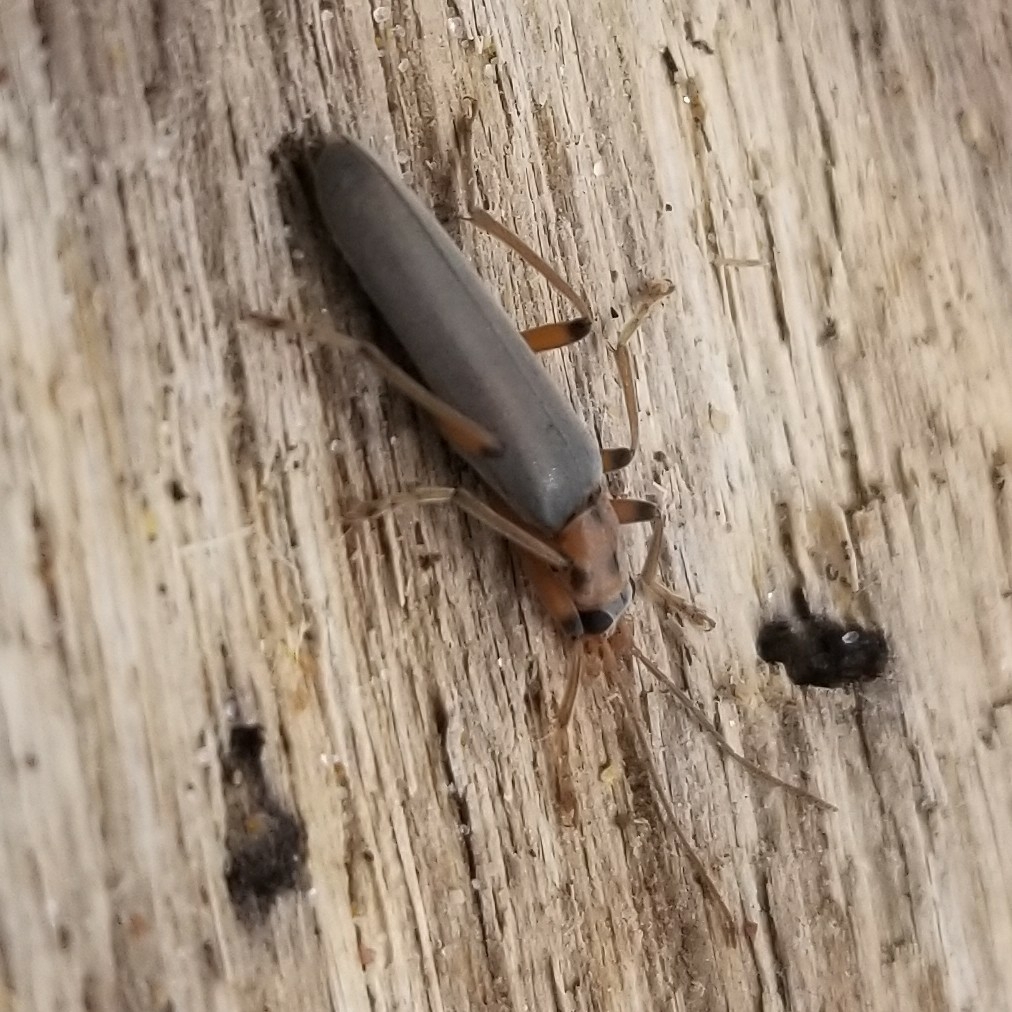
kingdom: Animalia
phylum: Arthropoda
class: Insecta
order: Coleoptera
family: Oedemeridae
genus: Copidita
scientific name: Copidita quadrimaculata
